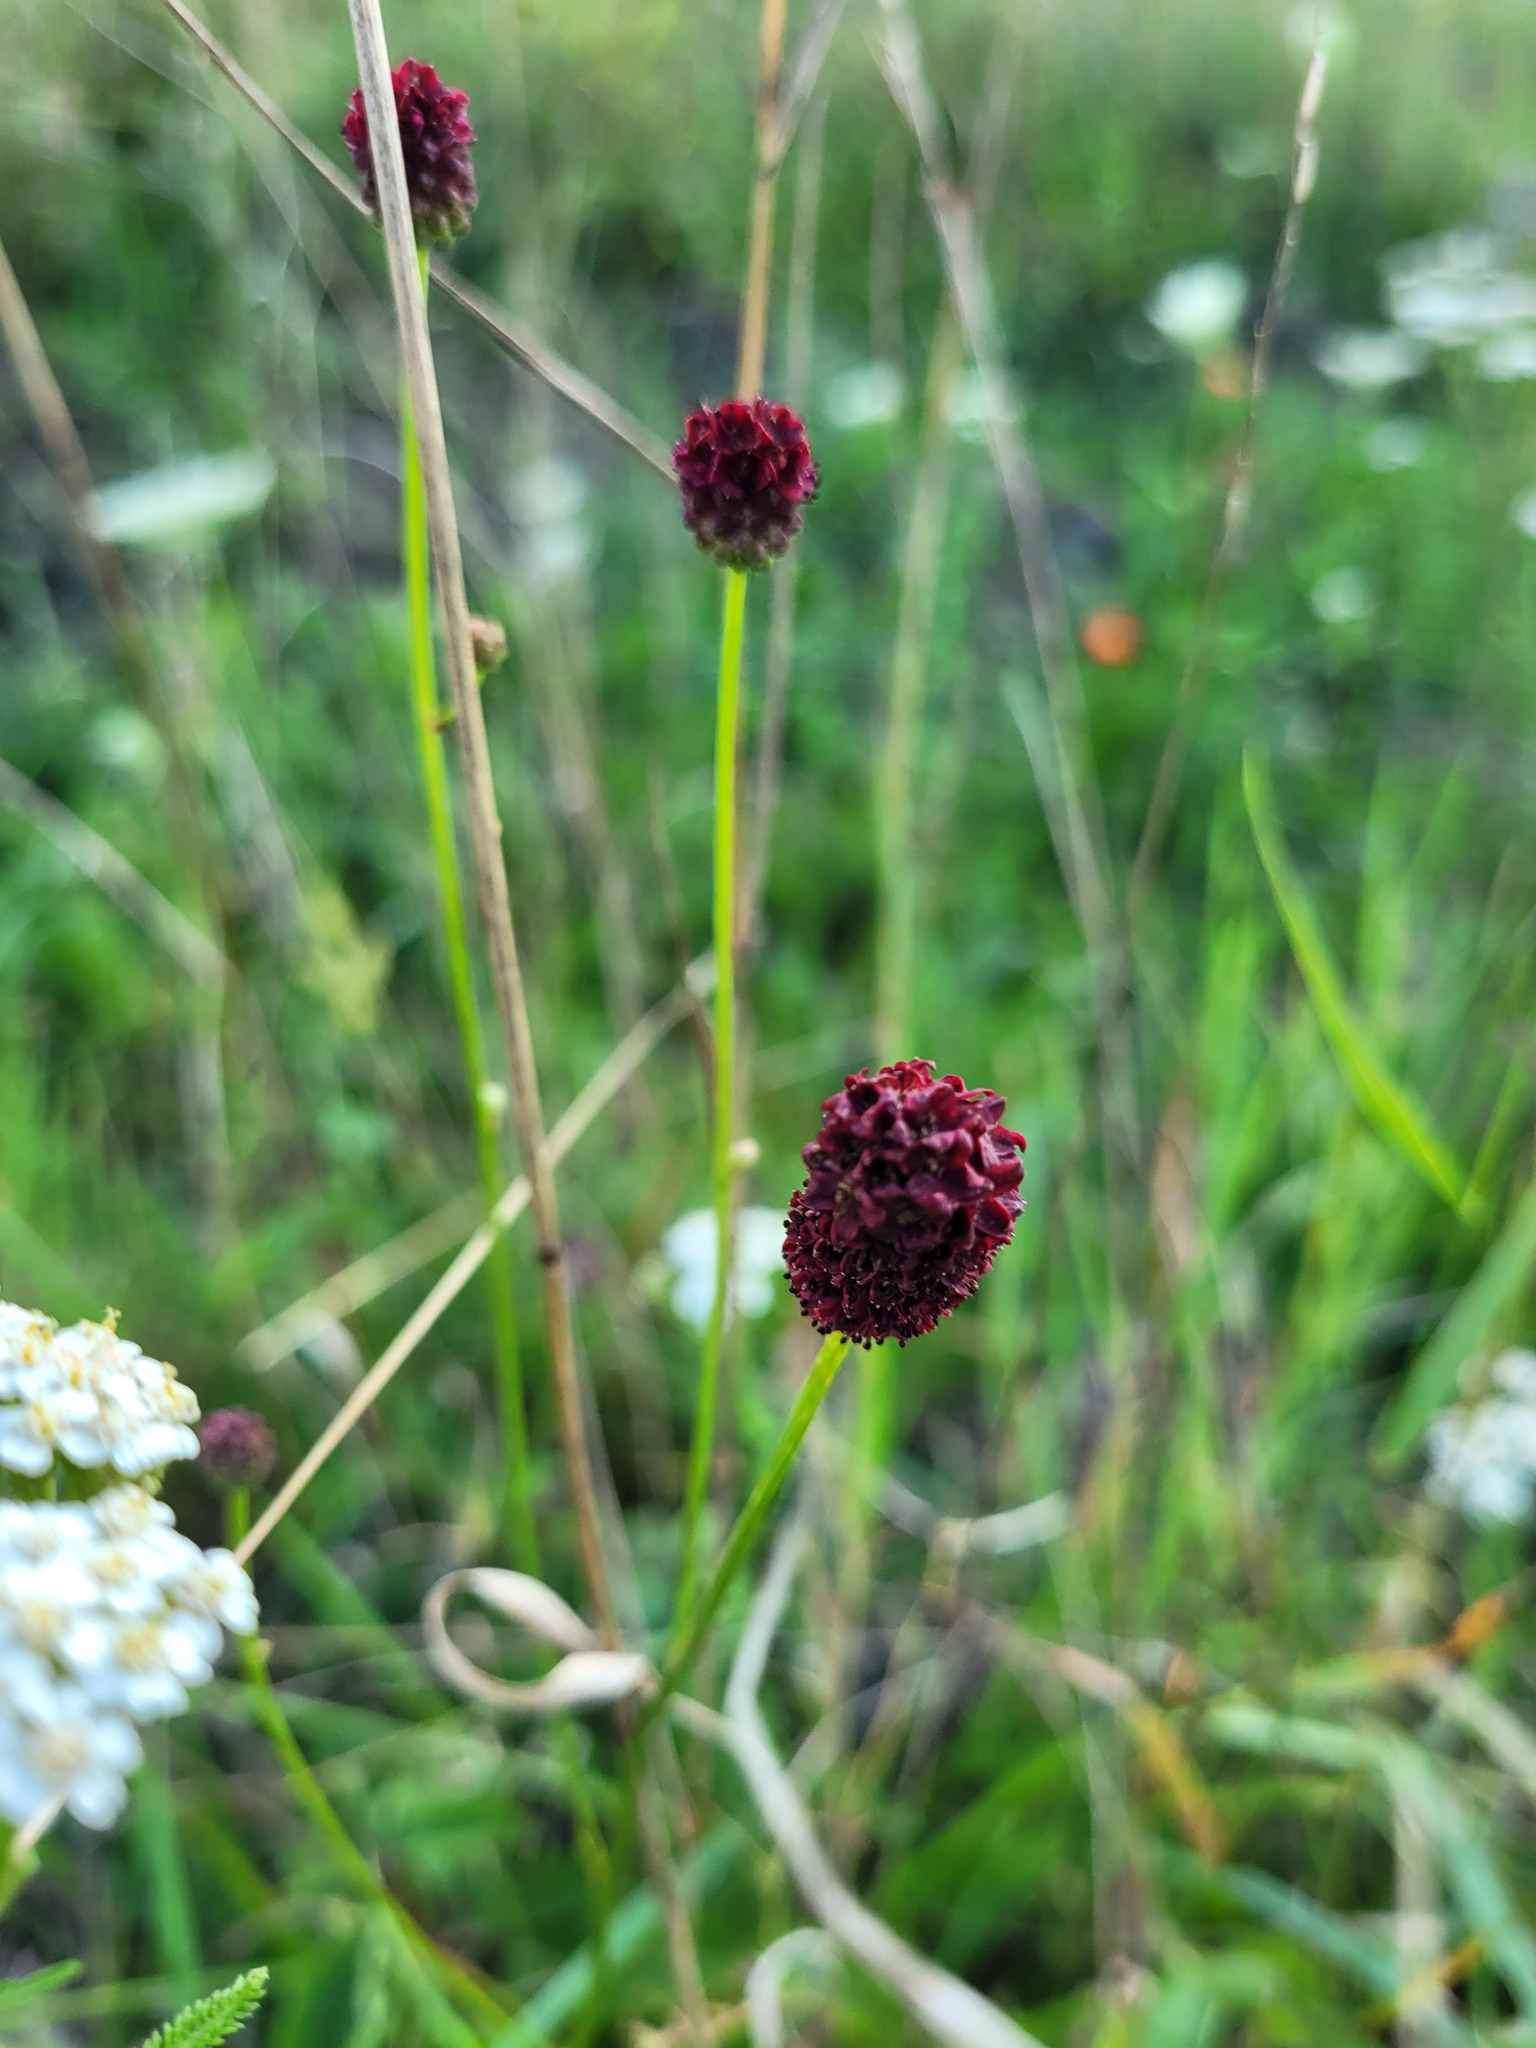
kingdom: Plantae
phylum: Tracheophyta
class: Magnoliopsida
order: Rosales
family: Rosaceae
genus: Sanguisorba
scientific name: Sanguisorba officinalis
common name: Great burnet
